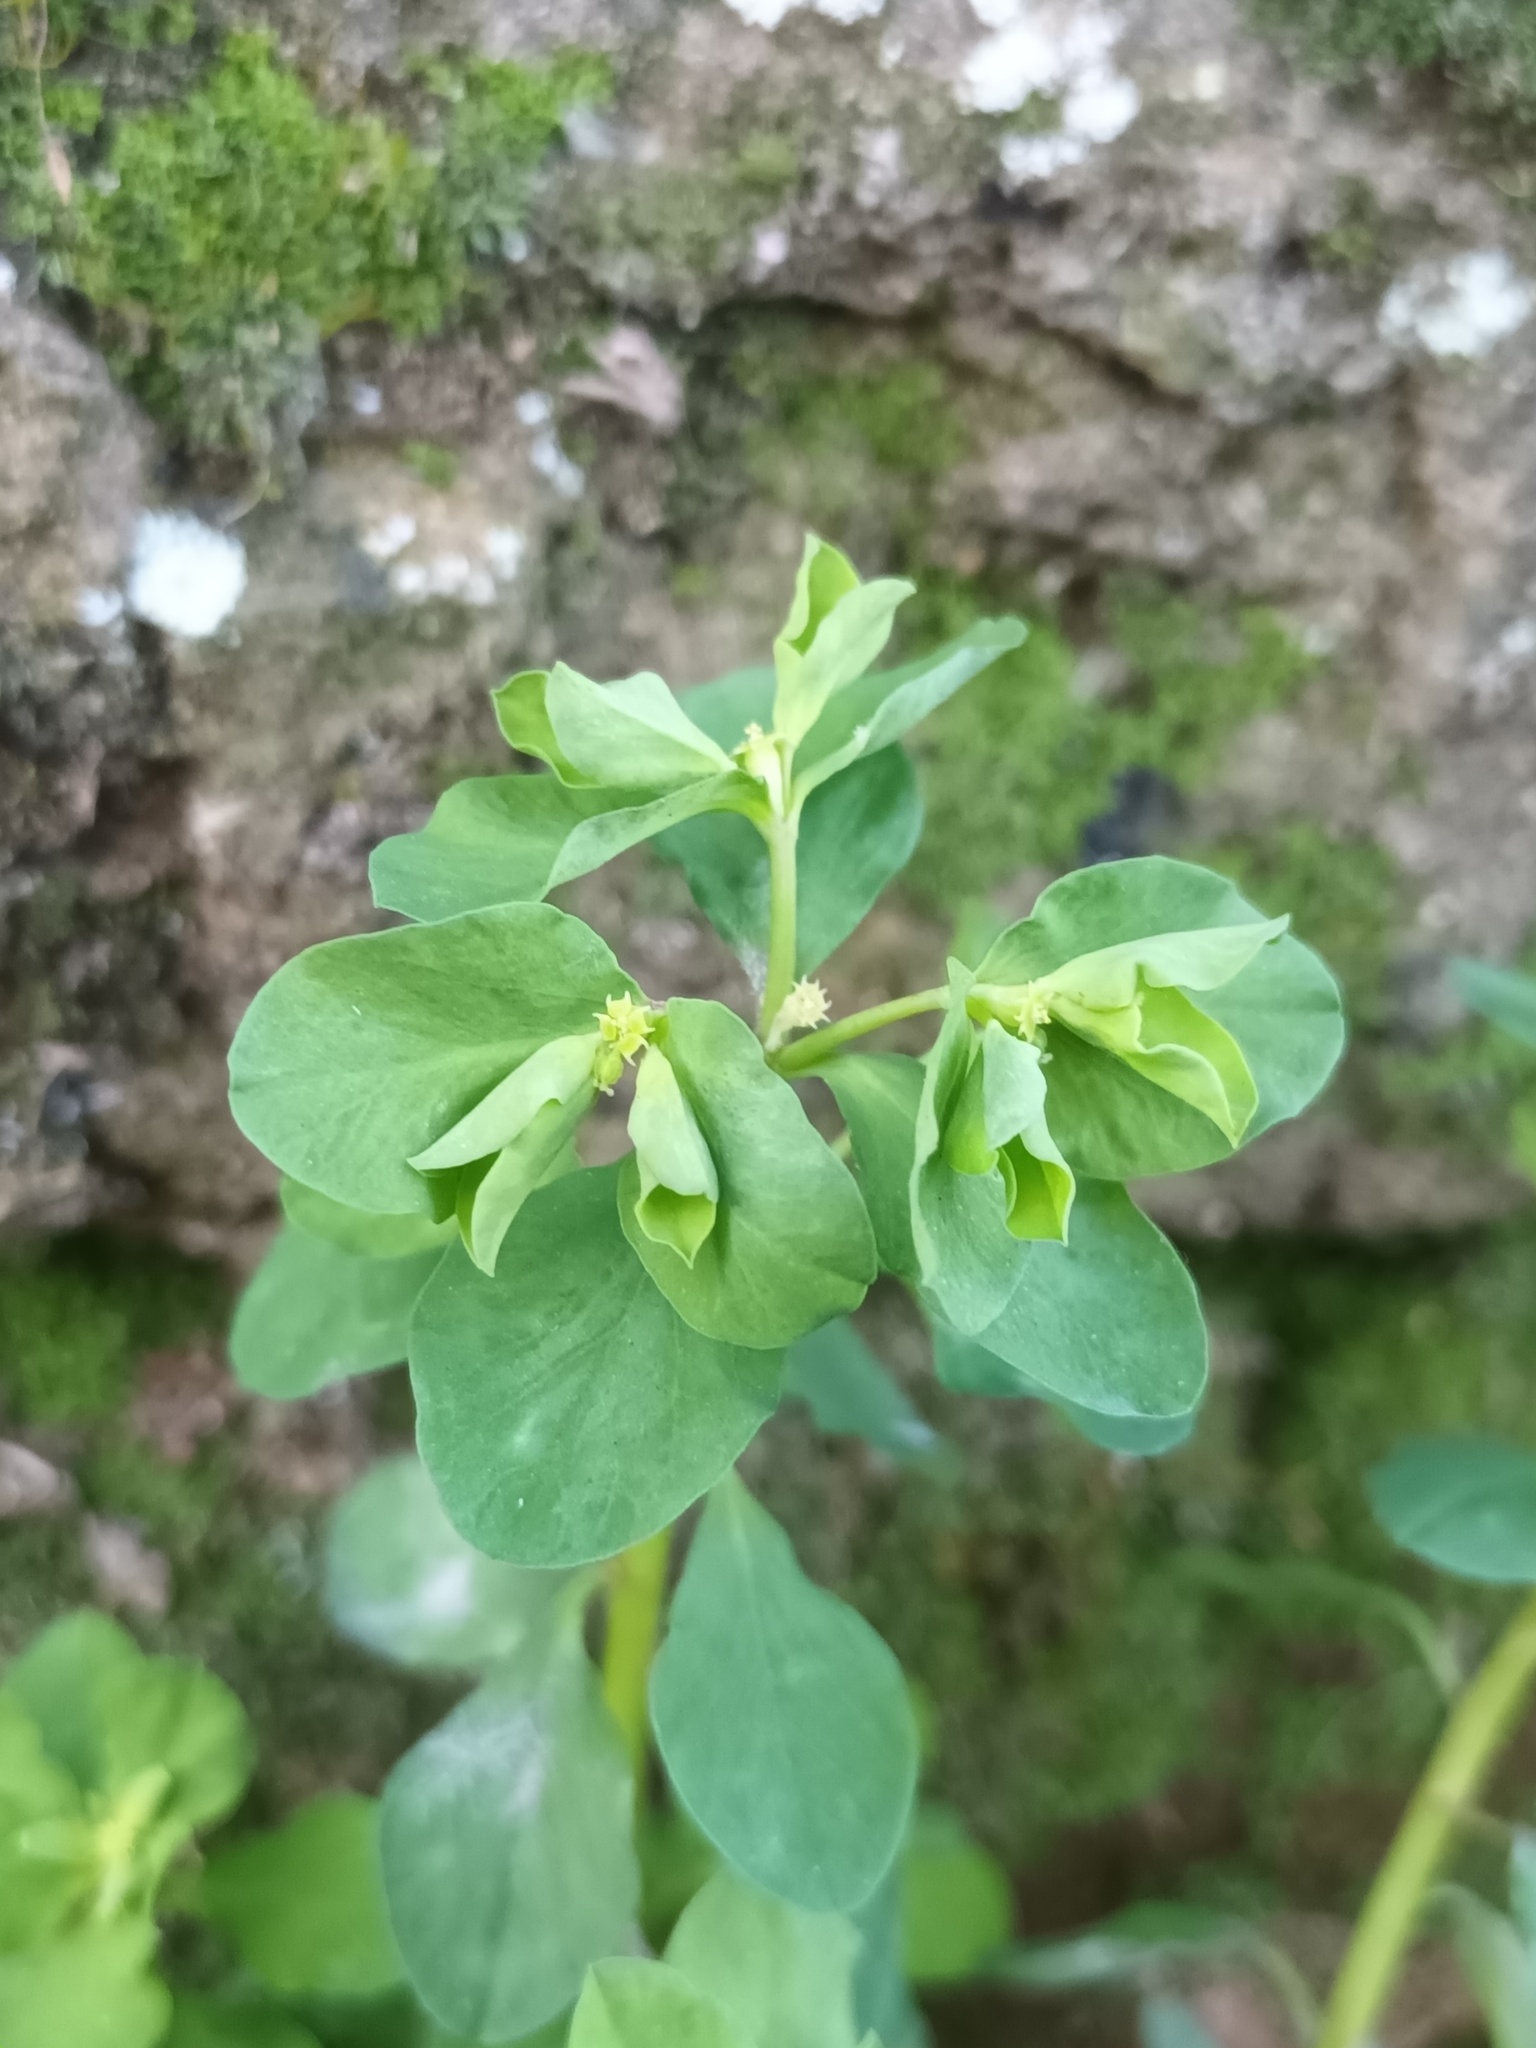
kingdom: Plantae
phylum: Tracheophyta
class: Magnoliopsida
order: Malpighiales
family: Euphorbiaceae
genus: Euphorbia
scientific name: Euphorbia peplus
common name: Petty spurge
